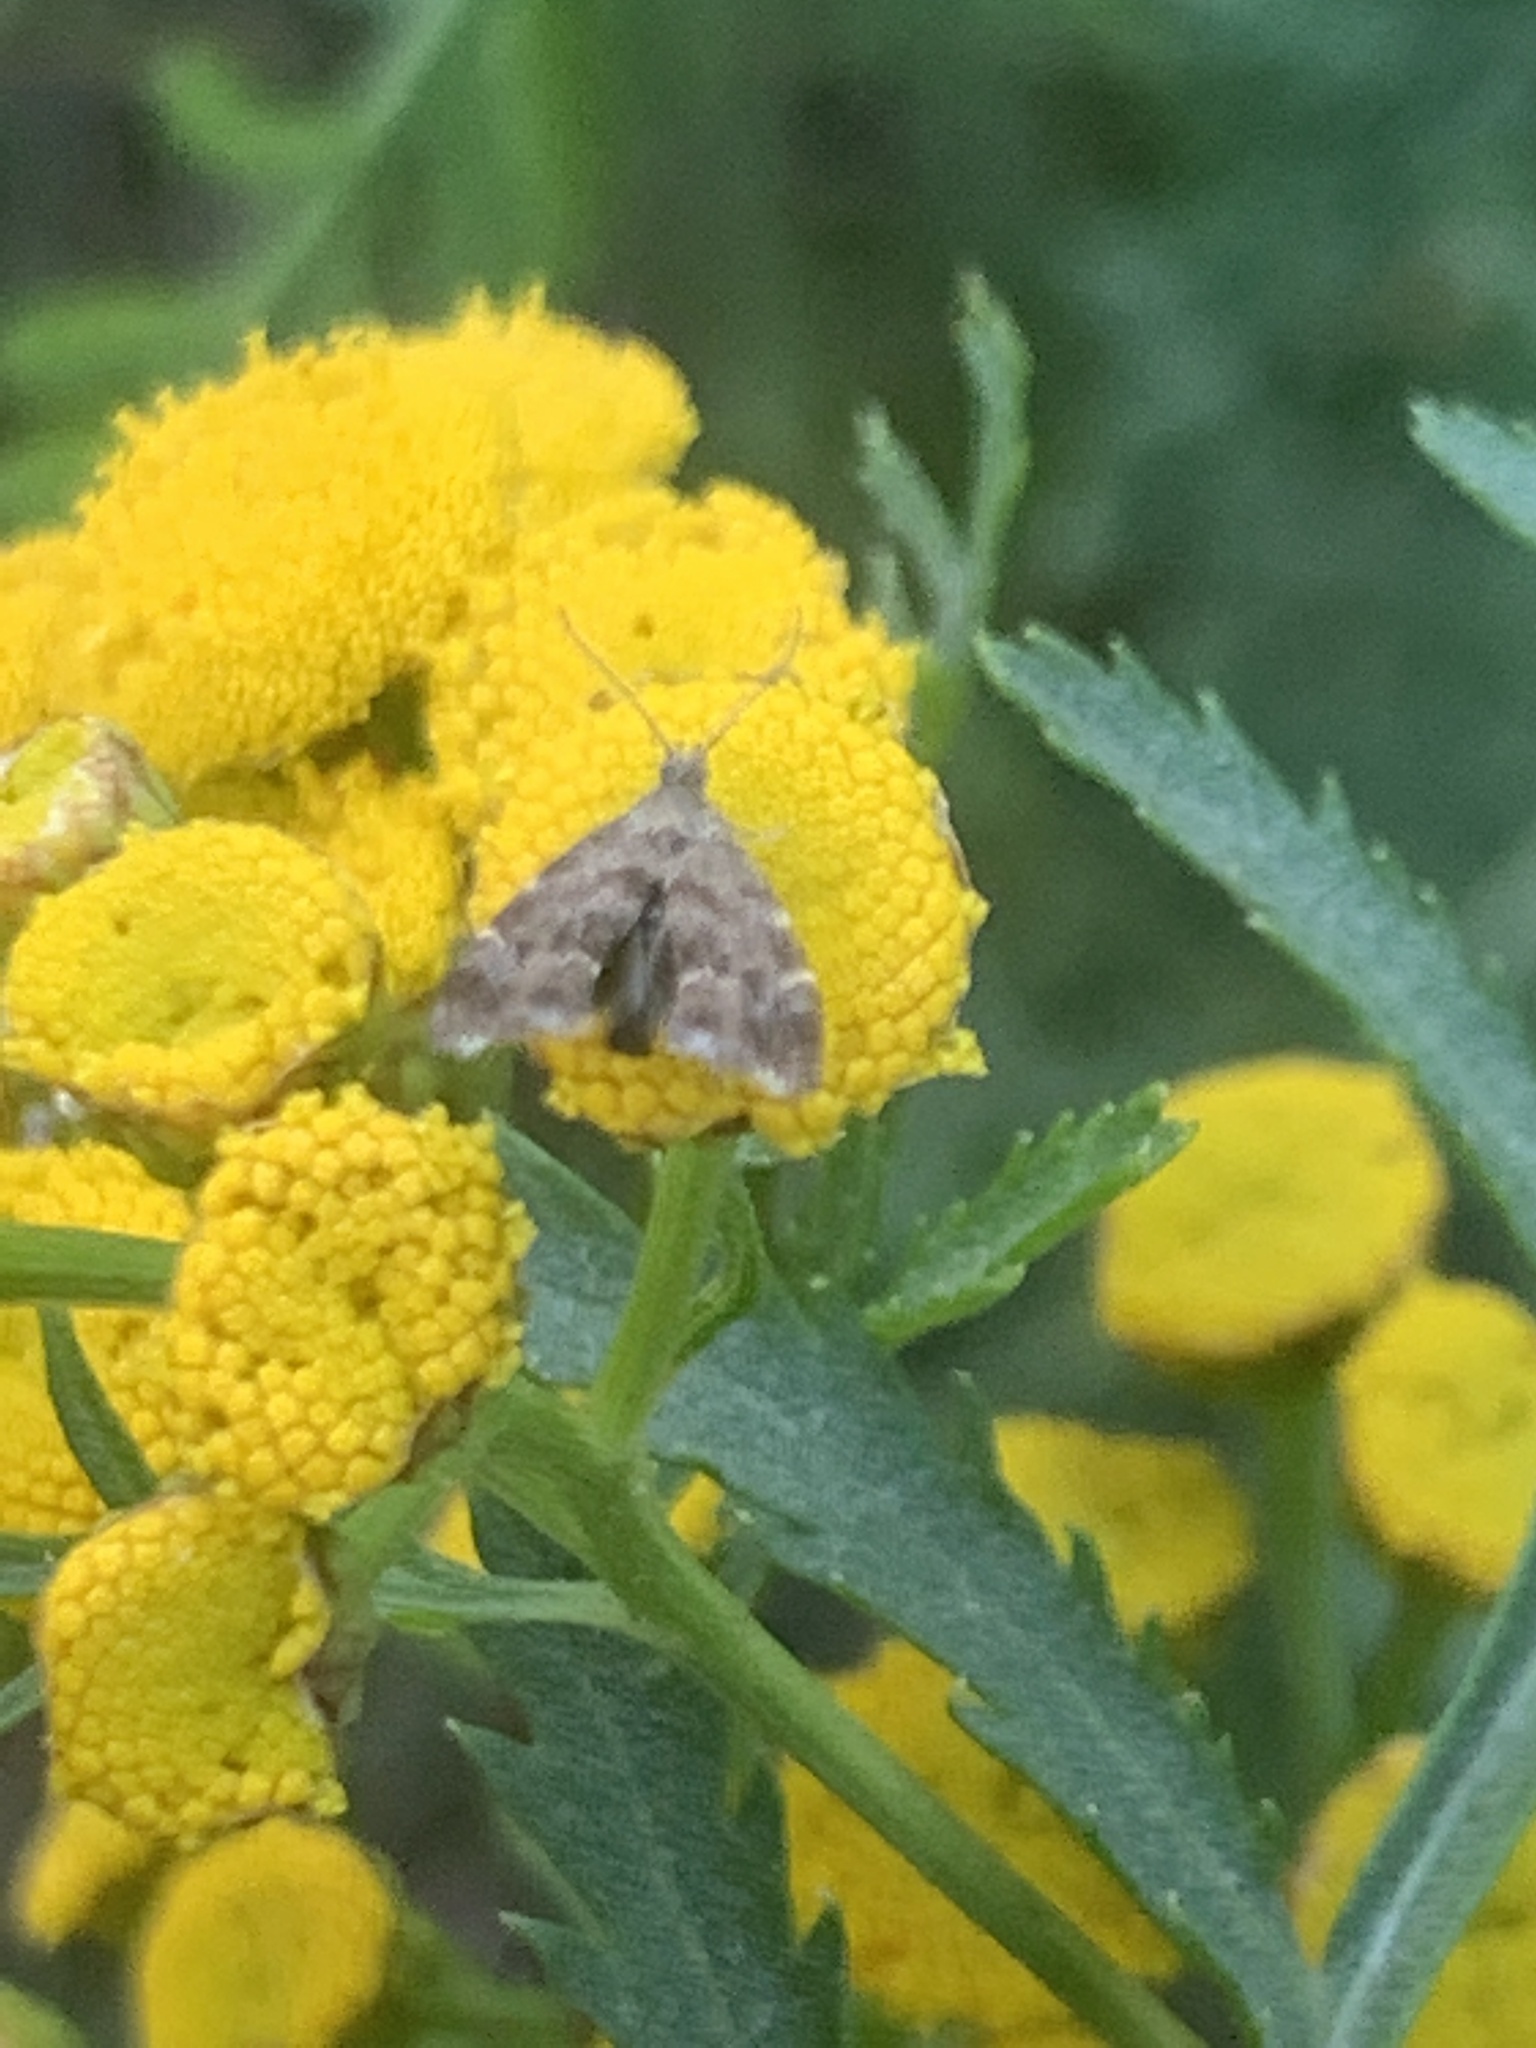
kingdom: Animalia
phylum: Arthropoda
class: Insecta
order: Lepidoptera
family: Choreutidae
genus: Anthophila
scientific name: Anthophila fabriciana
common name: Nettle-tap
